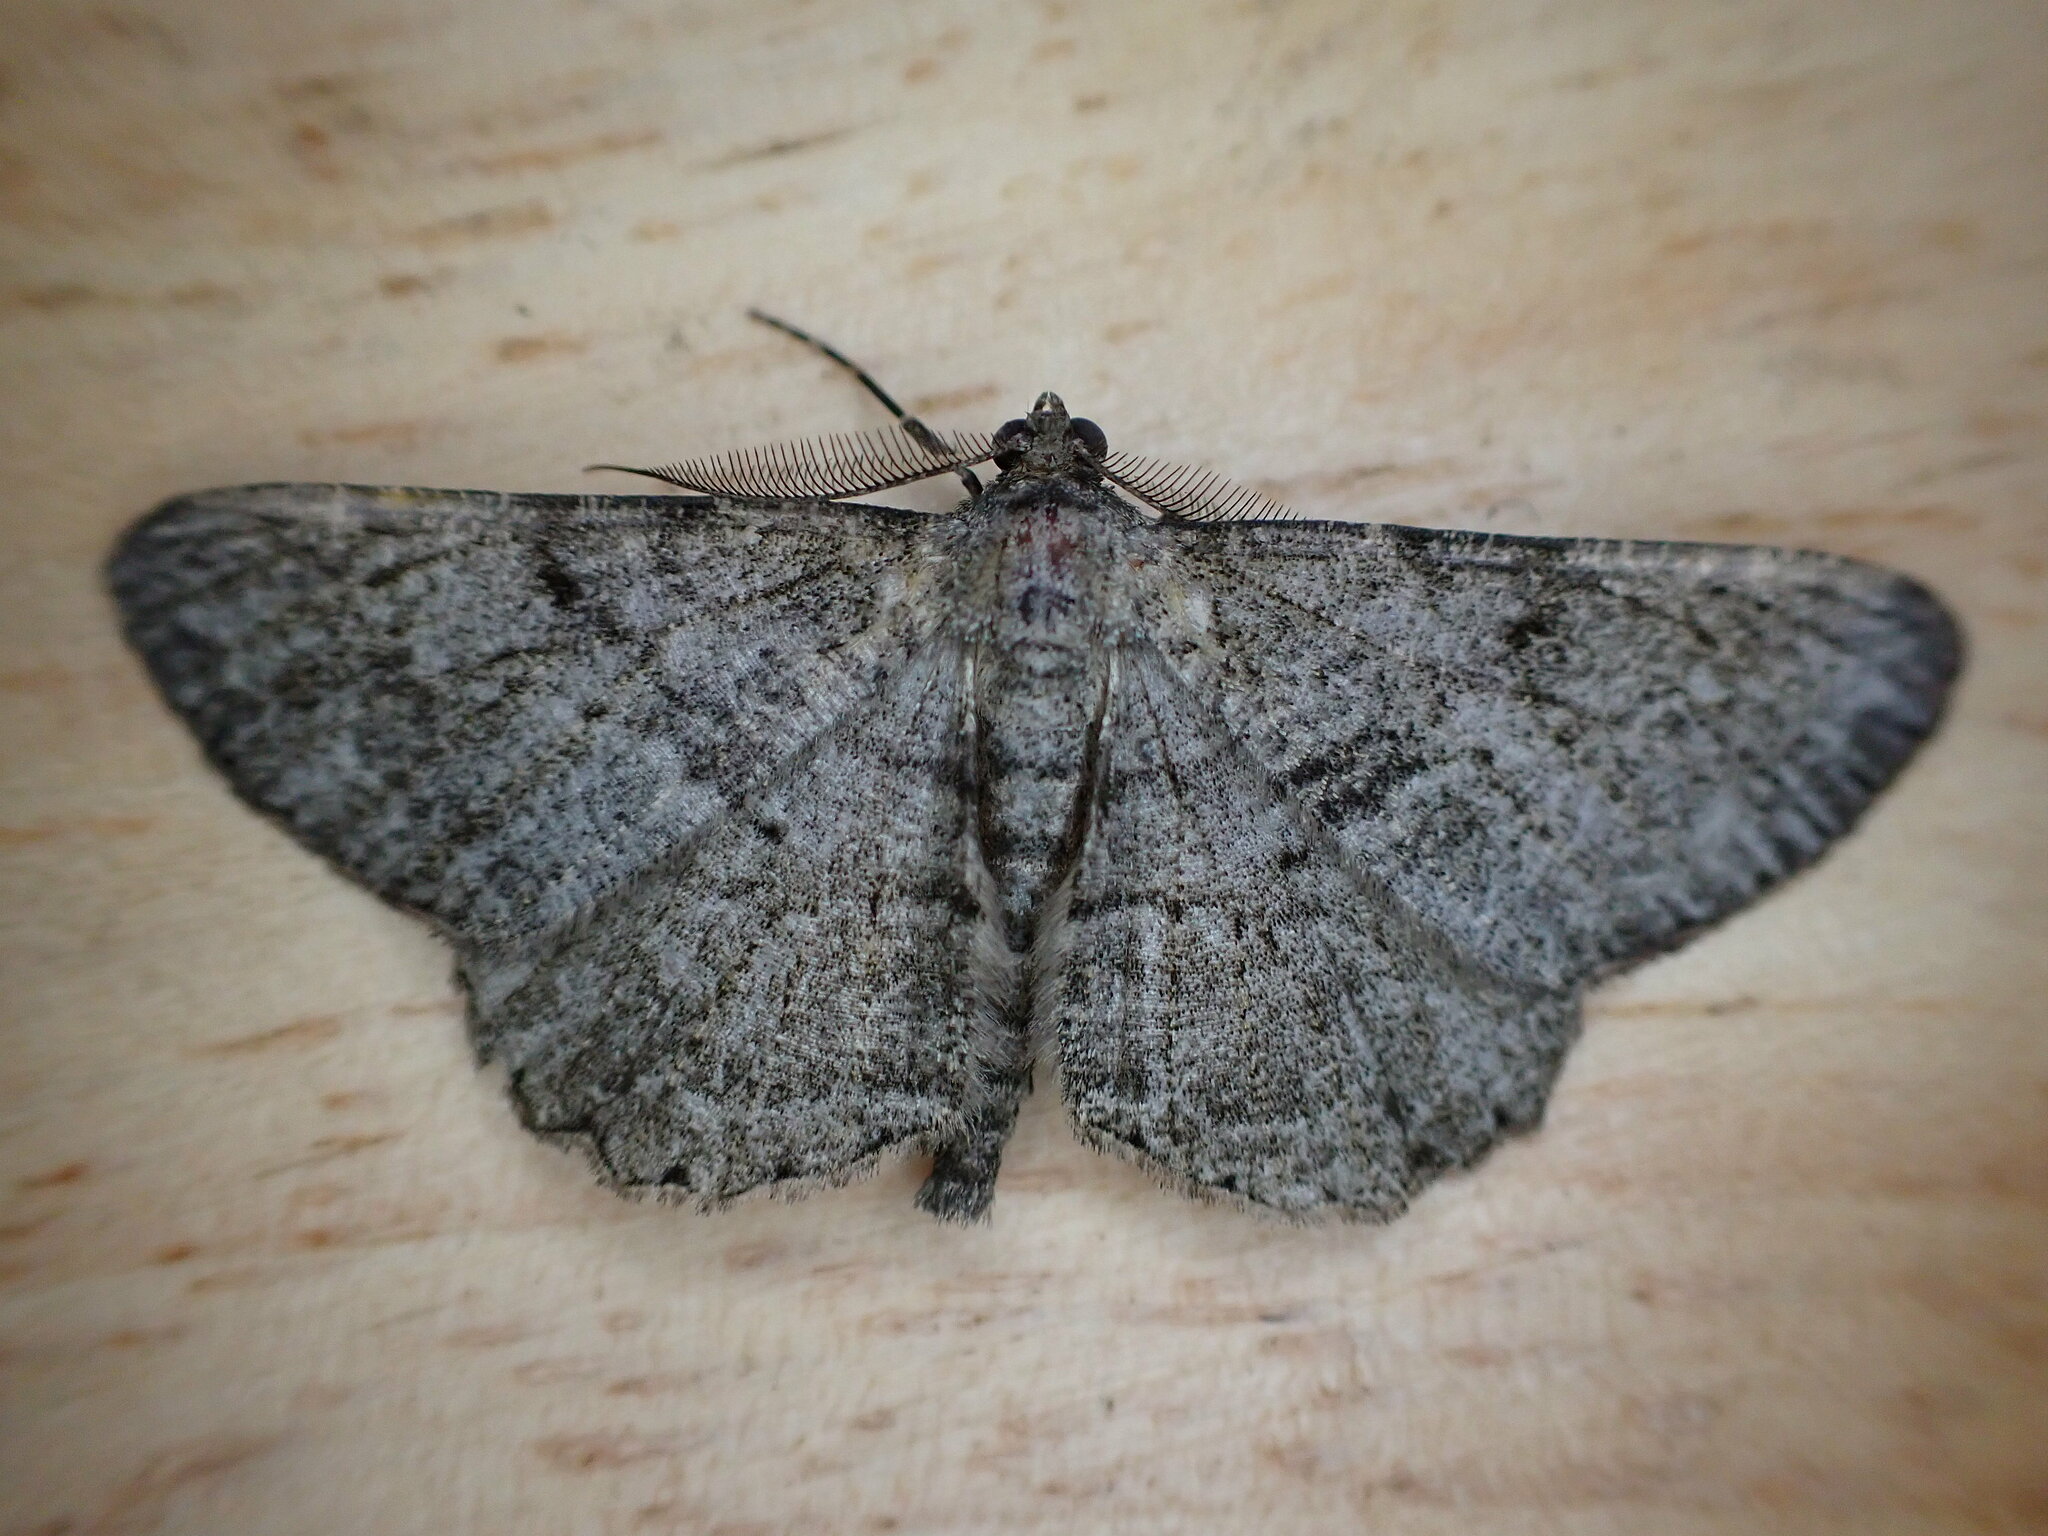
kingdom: Animalia
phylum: Arthropoda
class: Insecta
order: Lepidoptera
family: Geometridae
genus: Peribatodes
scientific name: Peribatodes rhomboidaria
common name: Willow beauty
